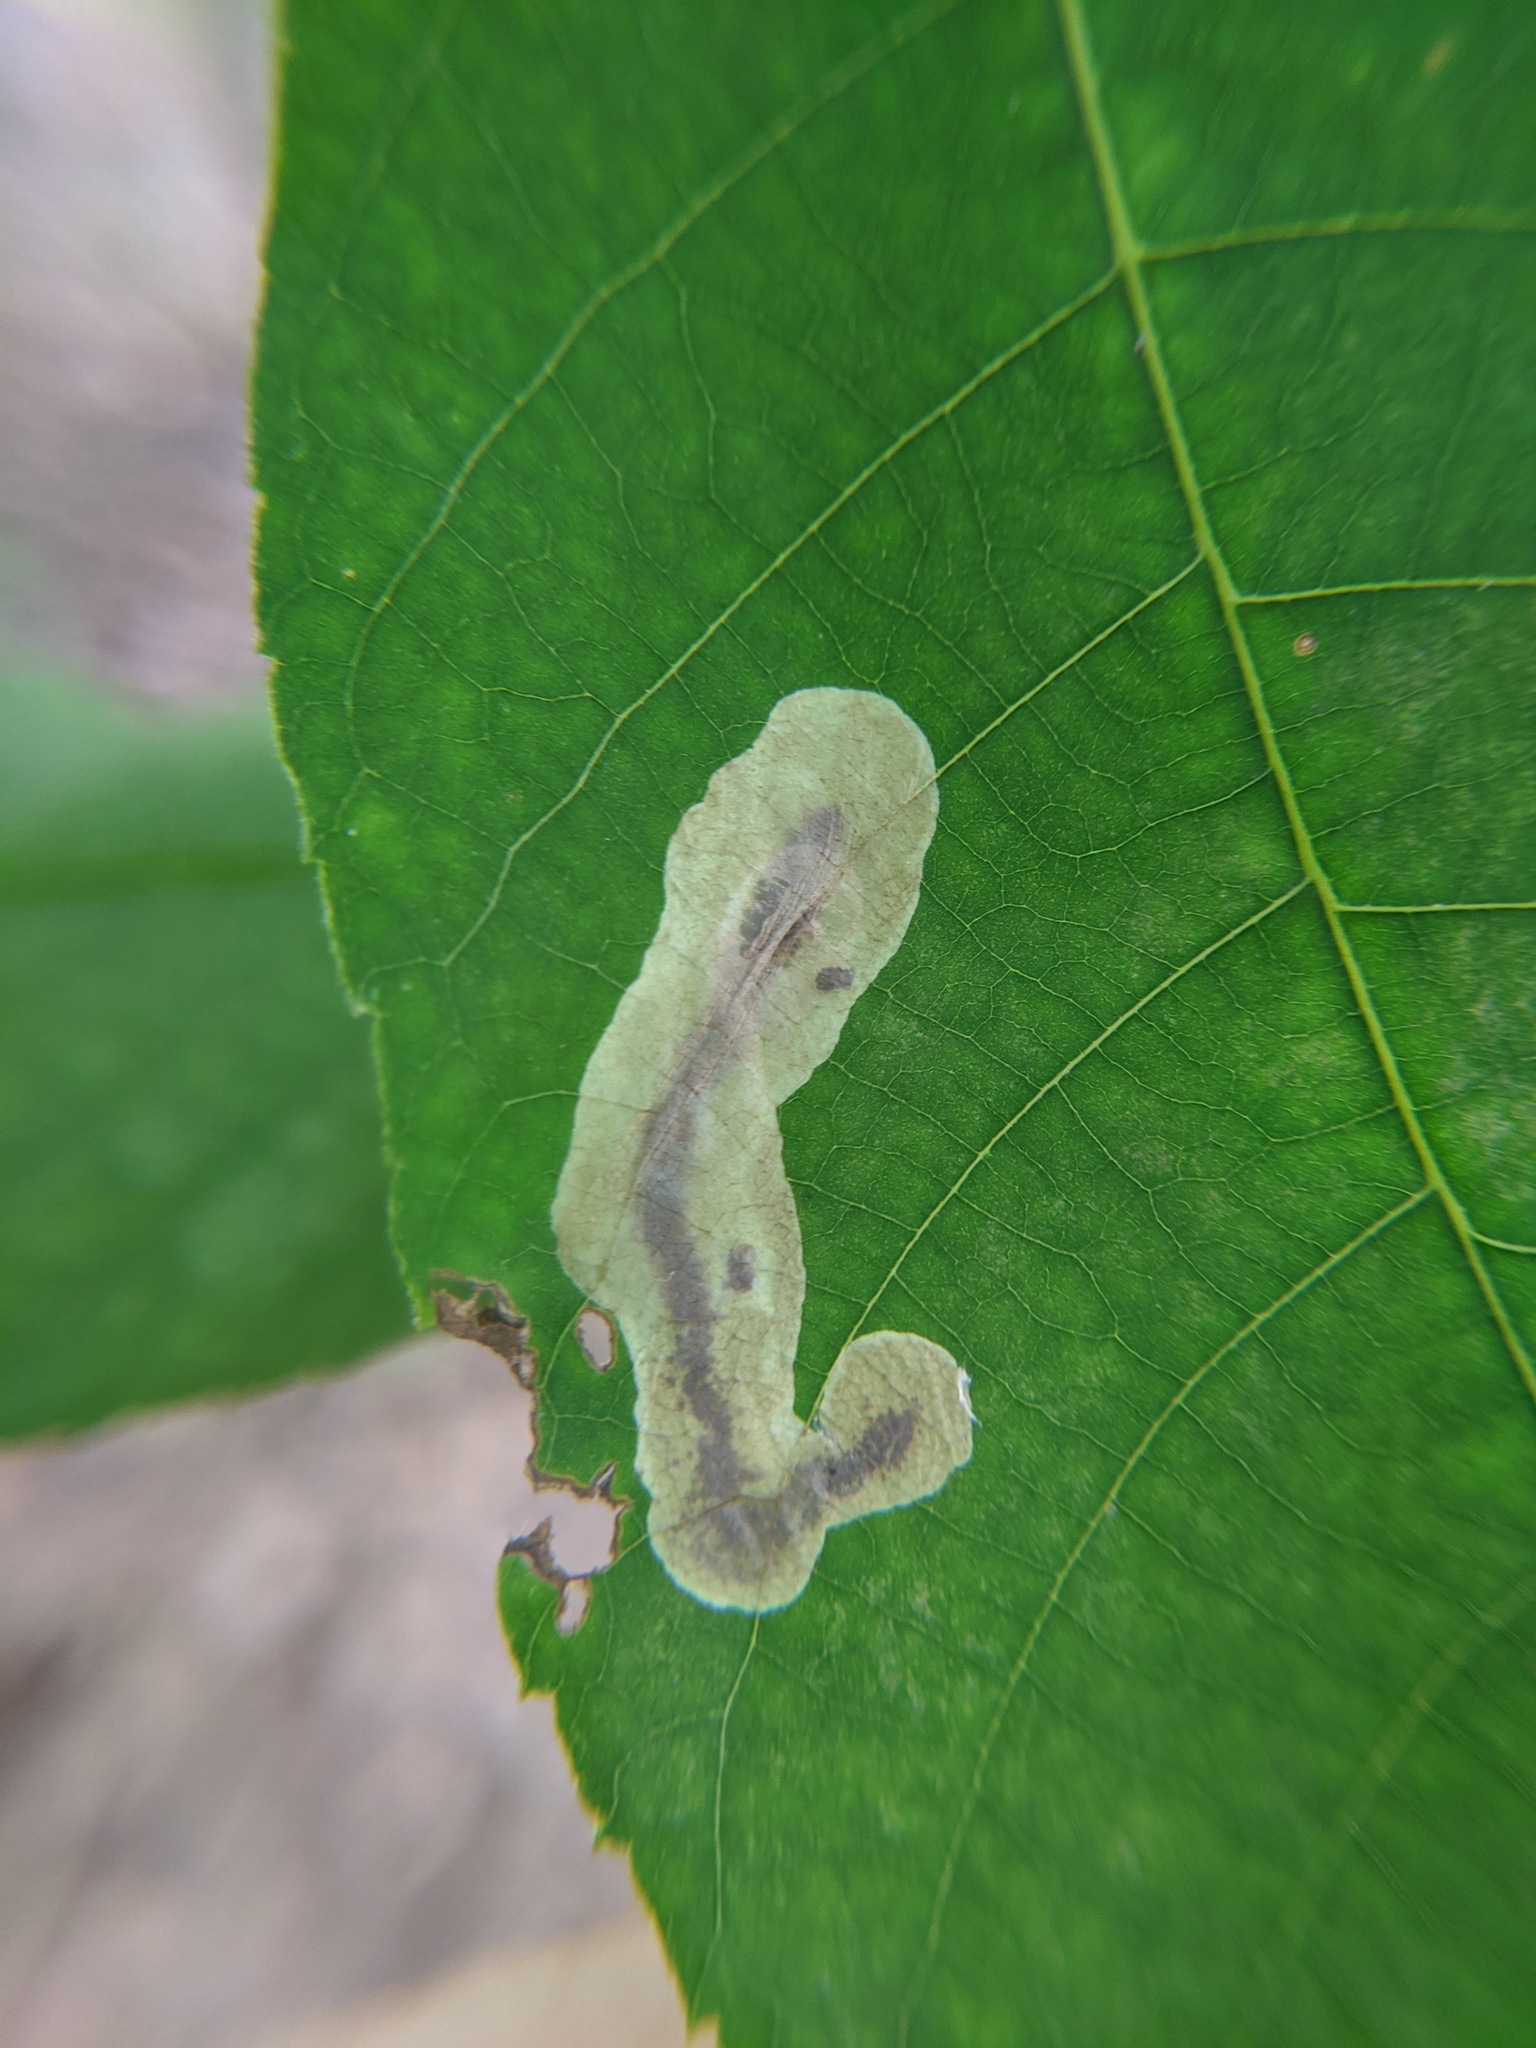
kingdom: Animalia
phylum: Arthropoda
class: Insecta
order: Lepidoptera
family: Gracillariidae
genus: Cameraria
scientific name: Cameraria caryaefoliella
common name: Pecan leafminer moth
